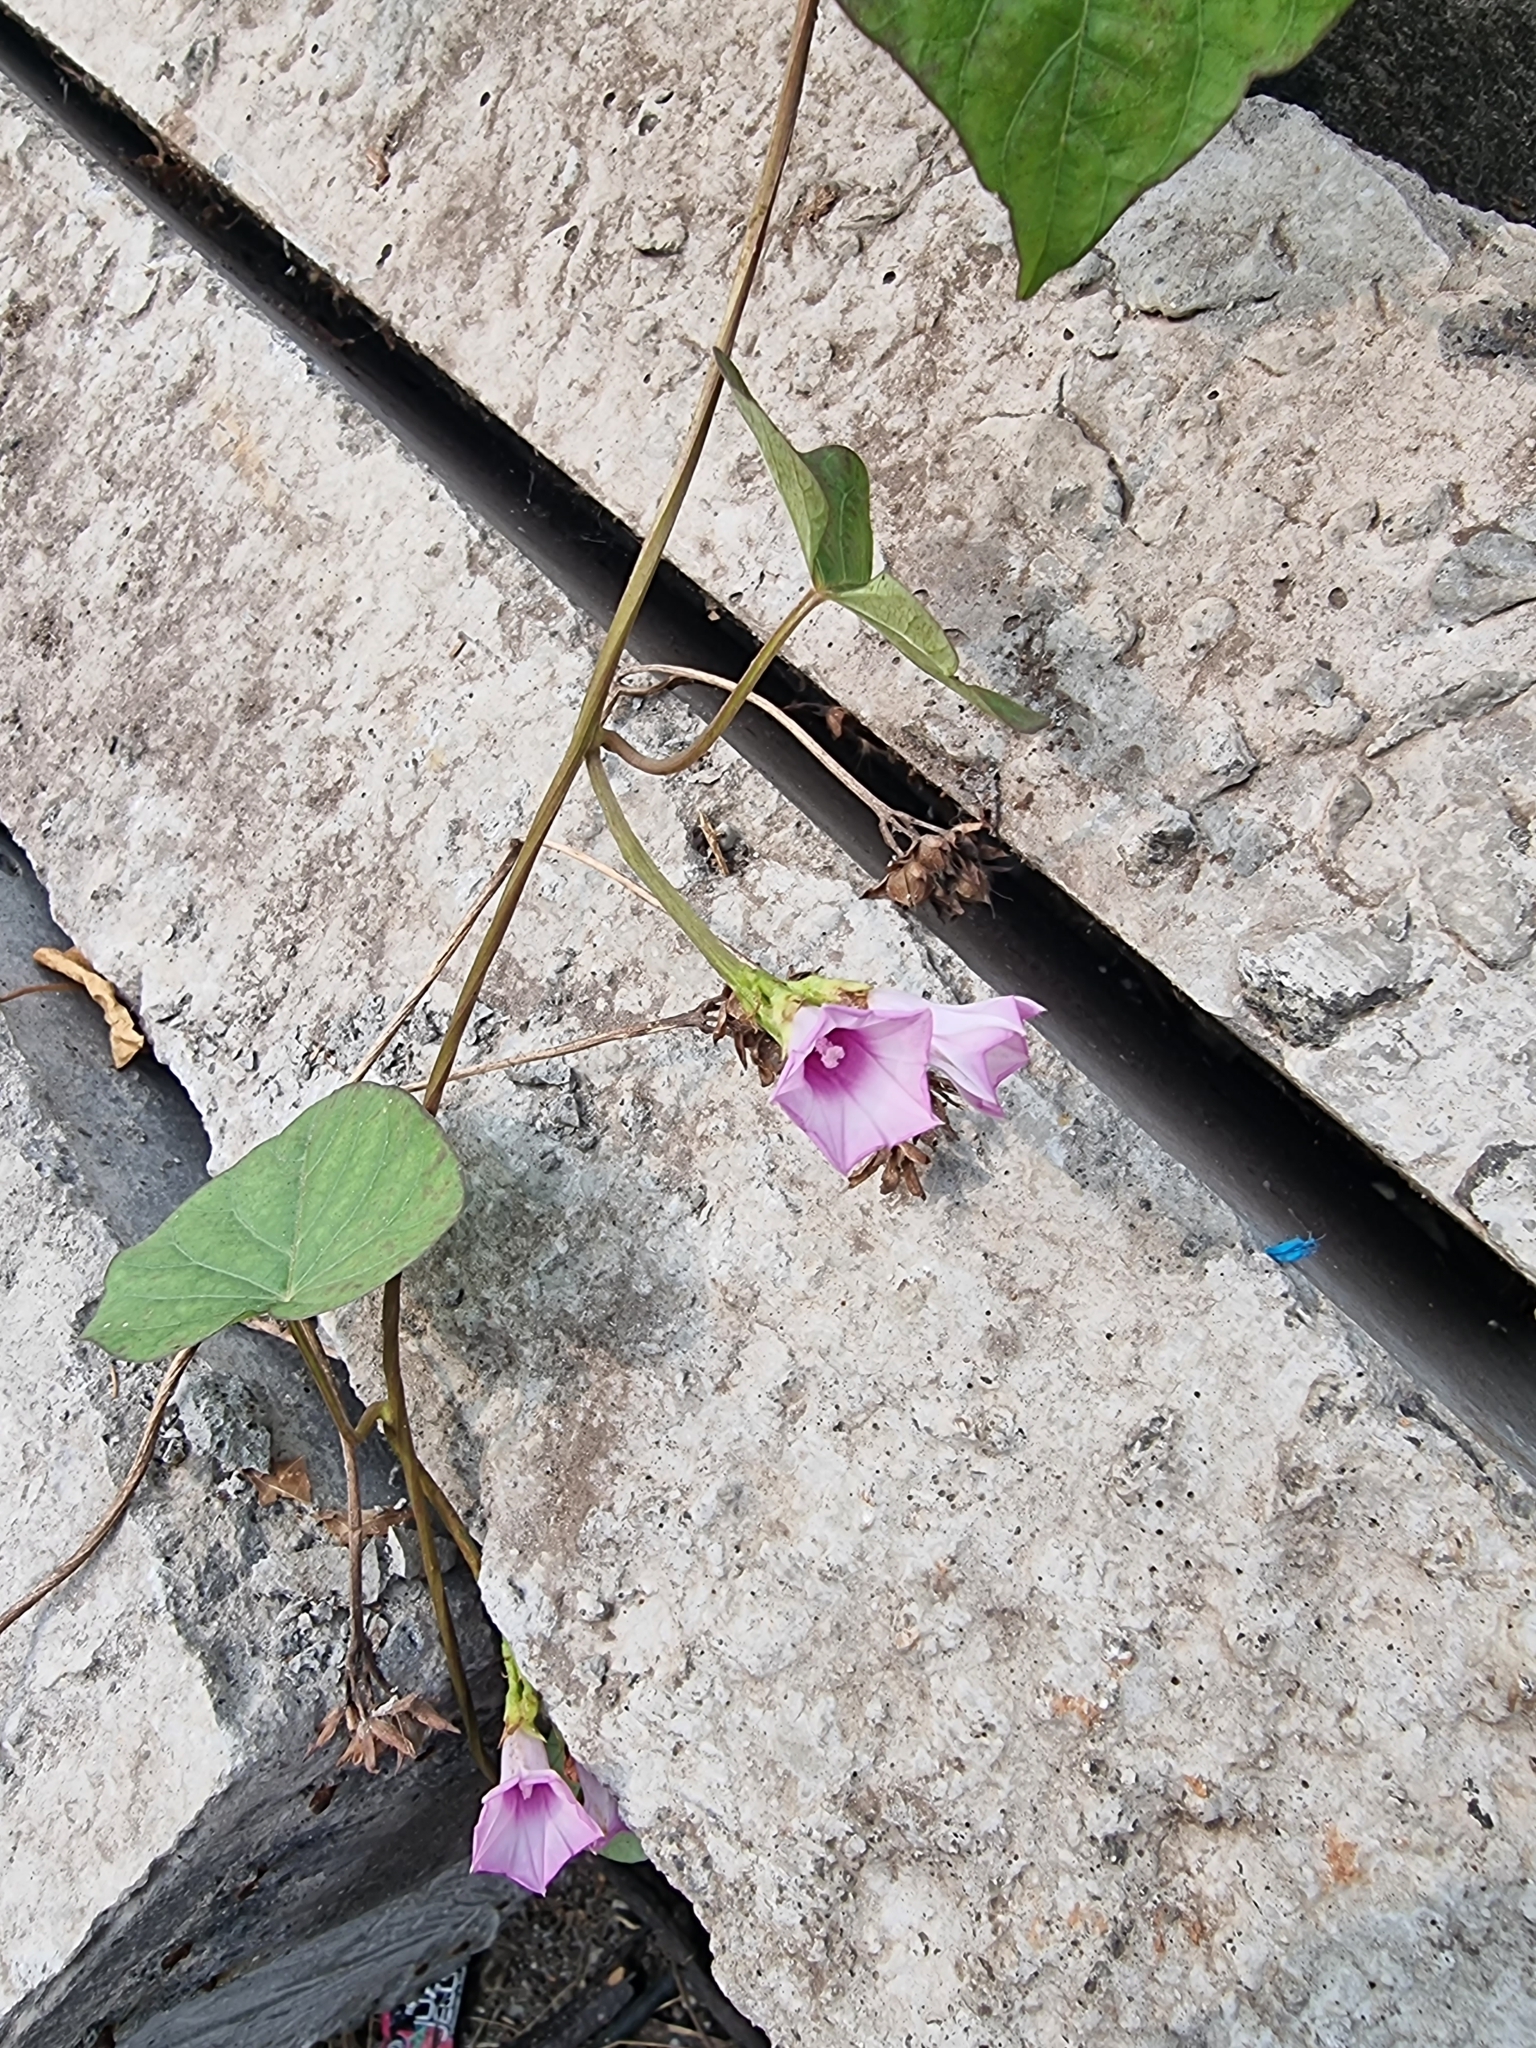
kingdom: Plantae
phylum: Tracheophyta
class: Magnoliopsida
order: Solanales
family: Convolvulaceae
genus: Ipomoea
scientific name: Ipomoea triloba
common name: Little-bell
